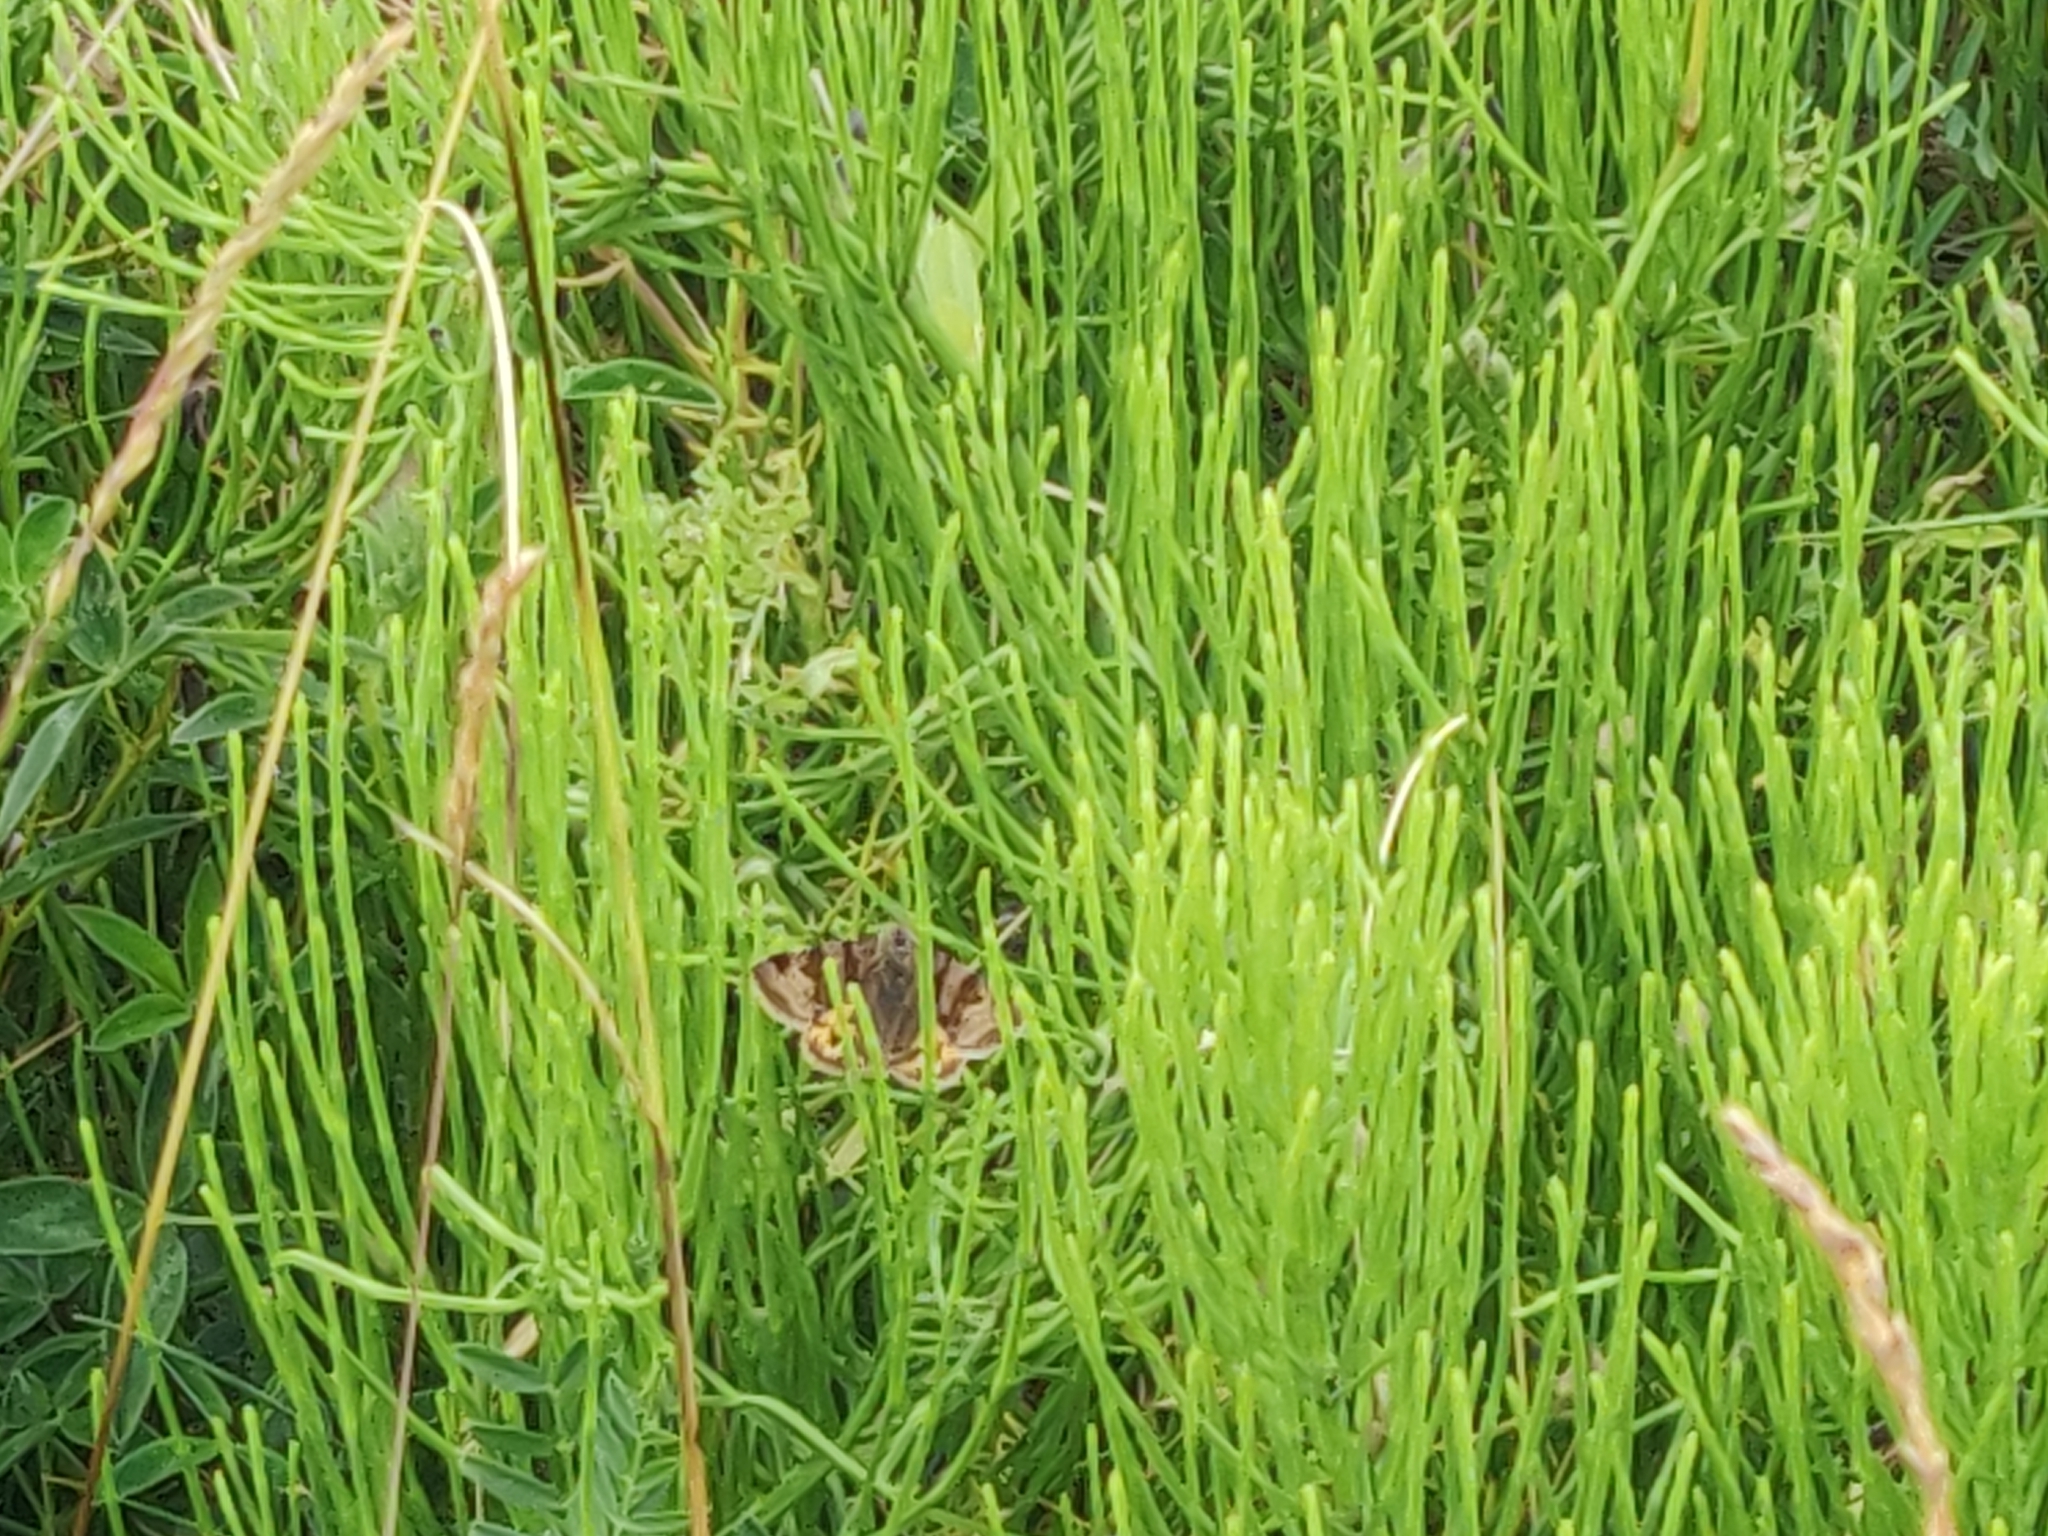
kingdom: Animalia
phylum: Arthropoda
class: Insecta
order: Lepidoptera
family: Erebidae
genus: Euclidia
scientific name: Euclidia glyphica
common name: Burnet companion
